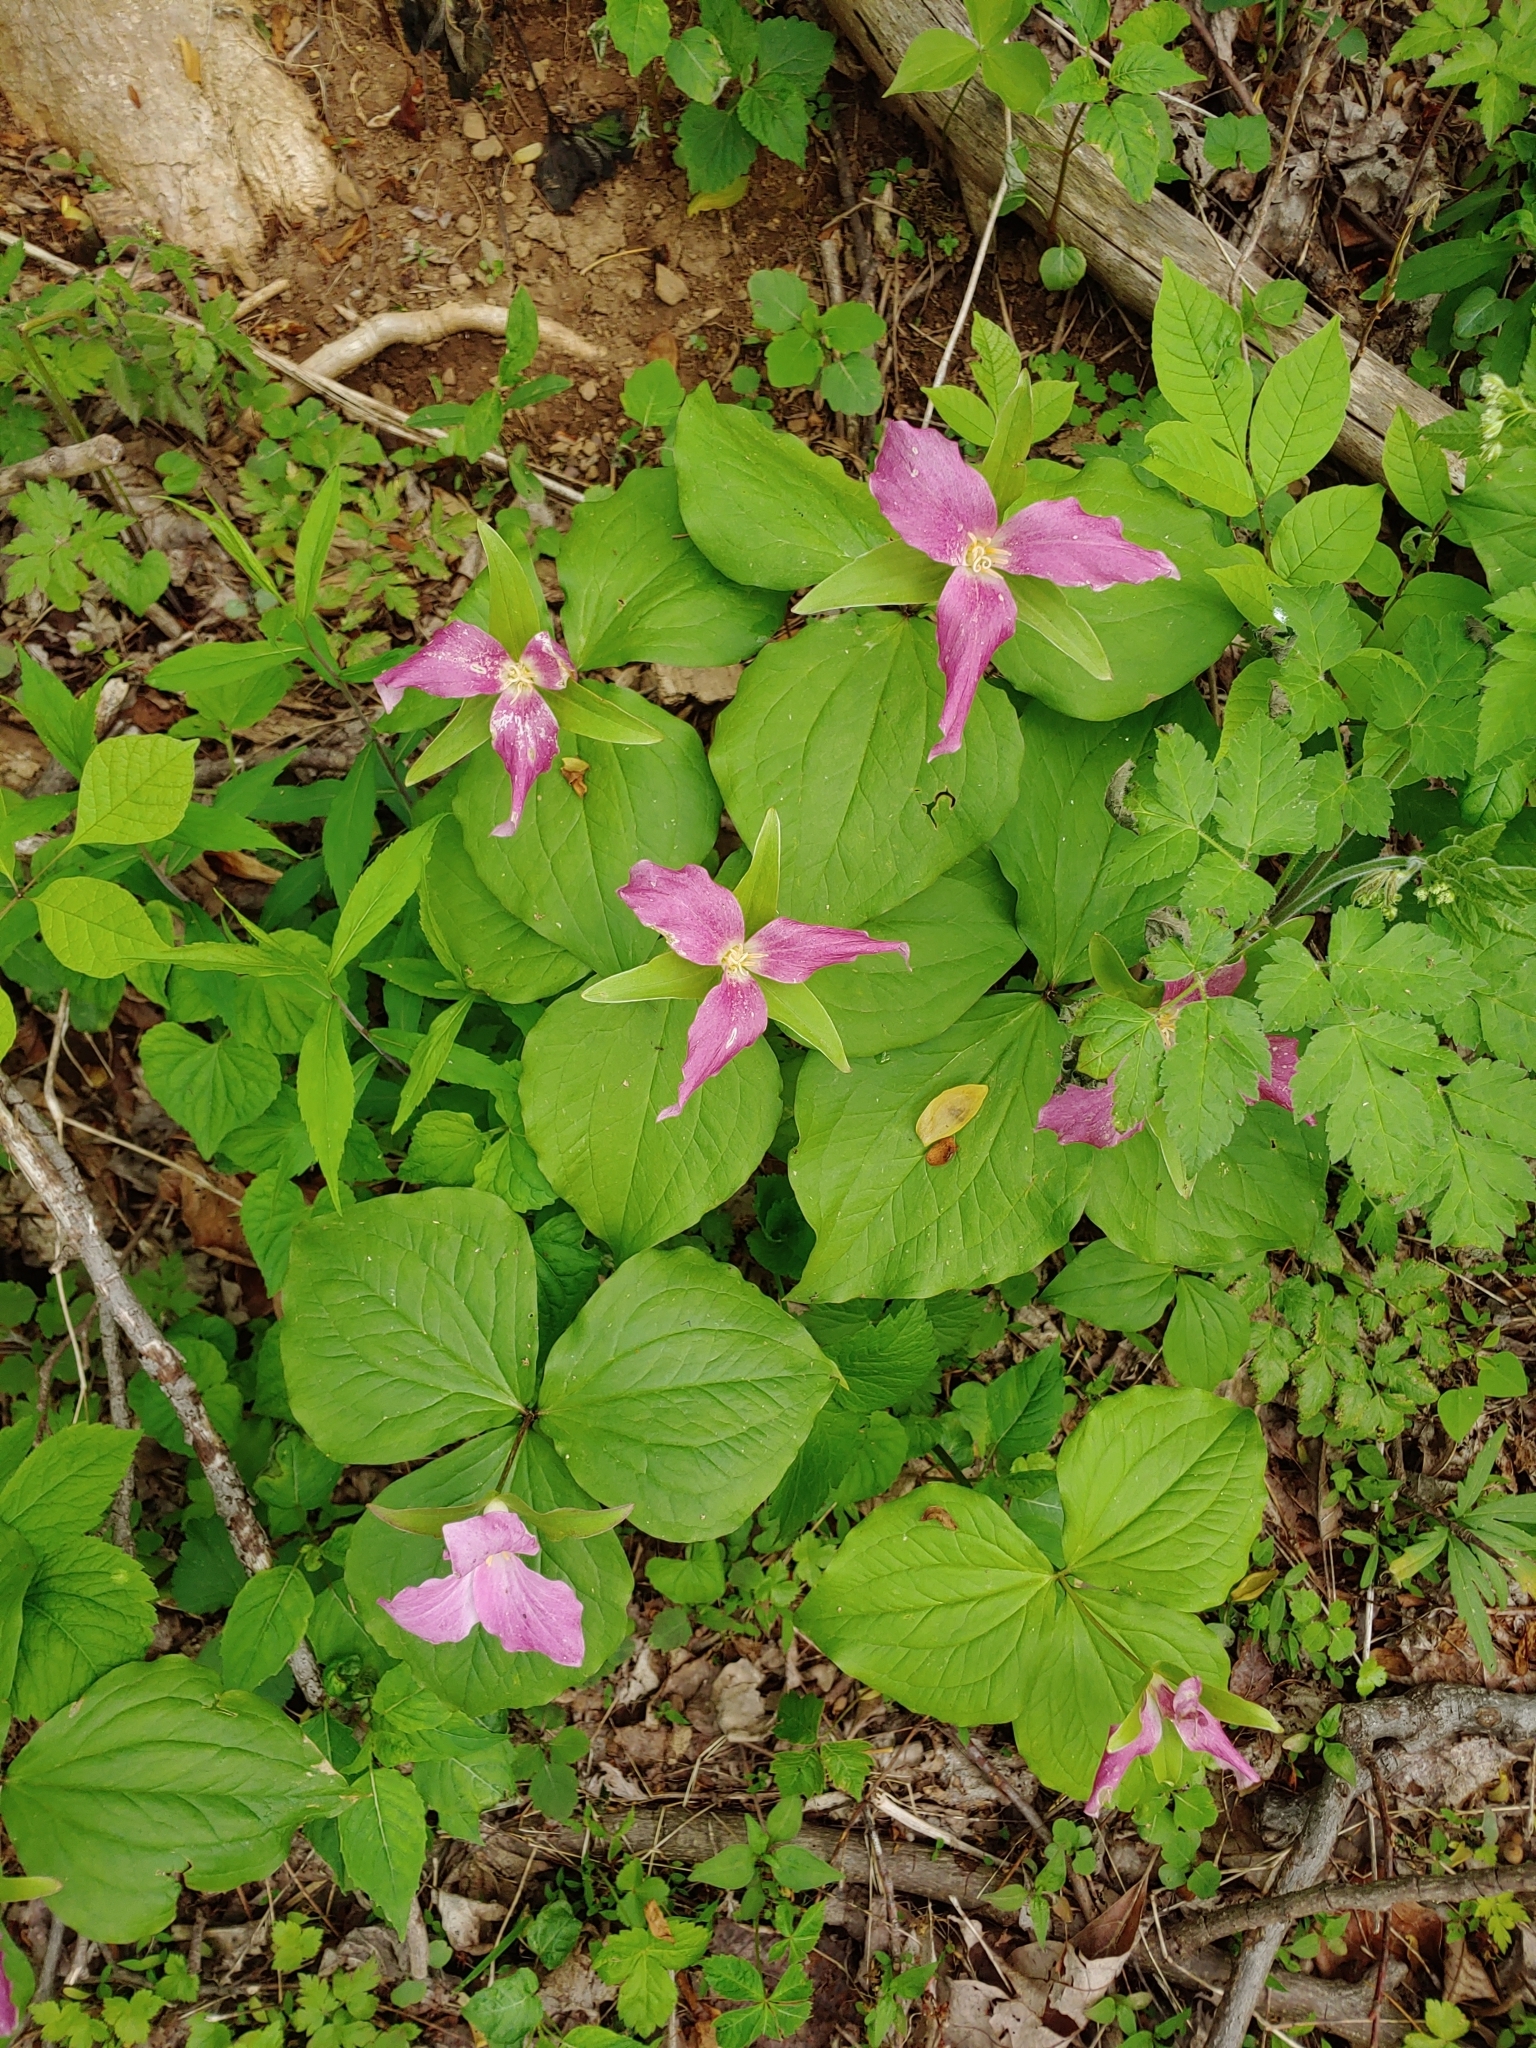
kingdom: Plantae
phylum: Tracheophyta
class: Liliopsida
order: Liliales
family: Melanthiaceae
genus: Trillium
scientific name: Trillium grandiflorum
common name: Great white trillium
